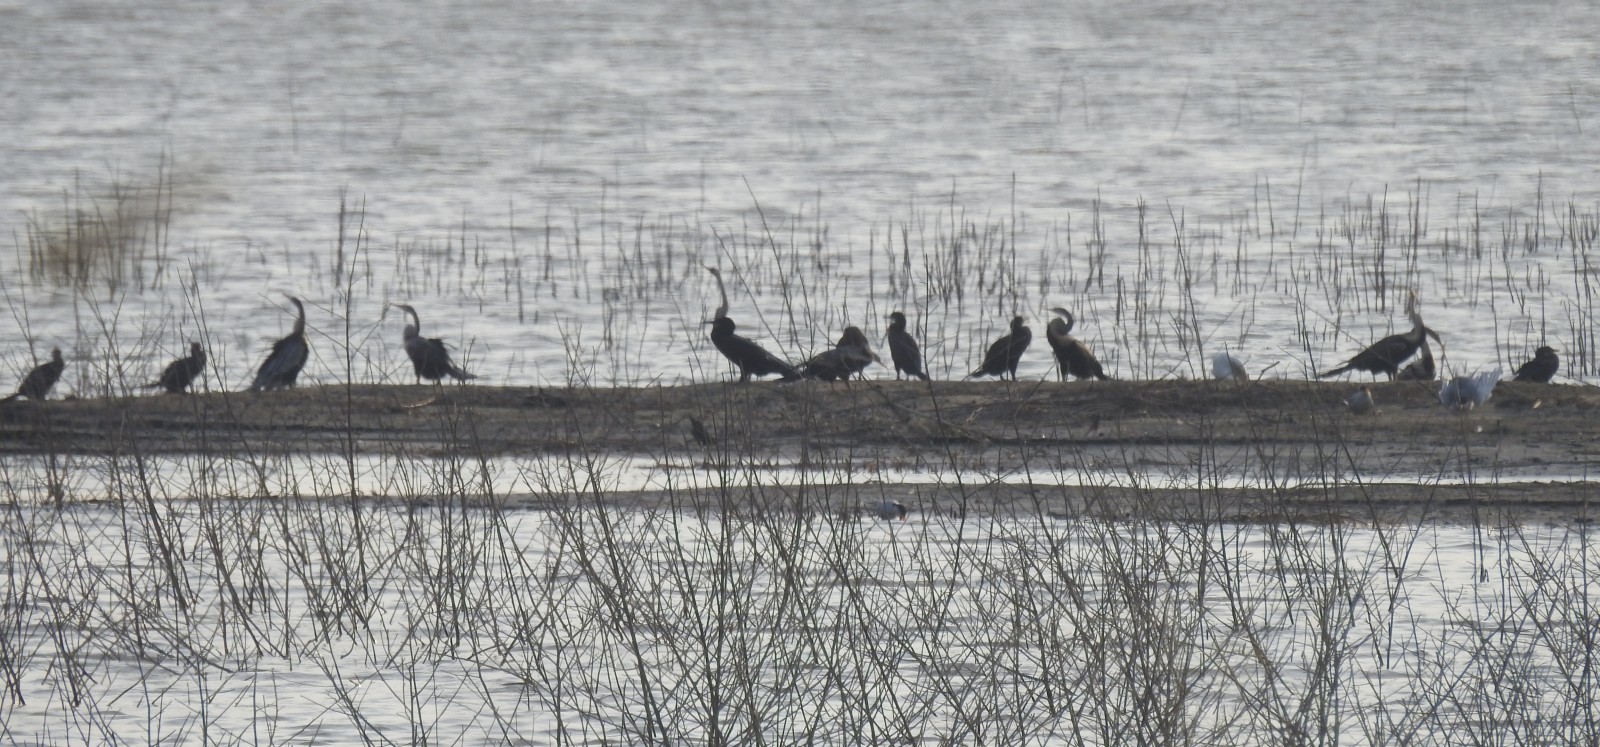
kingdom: Animalia
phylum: Chordata
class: Aves
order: Suliformes
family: Anhingidae
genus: Anhinga
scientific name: Anhinga melanogaster
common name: Oriental darter
